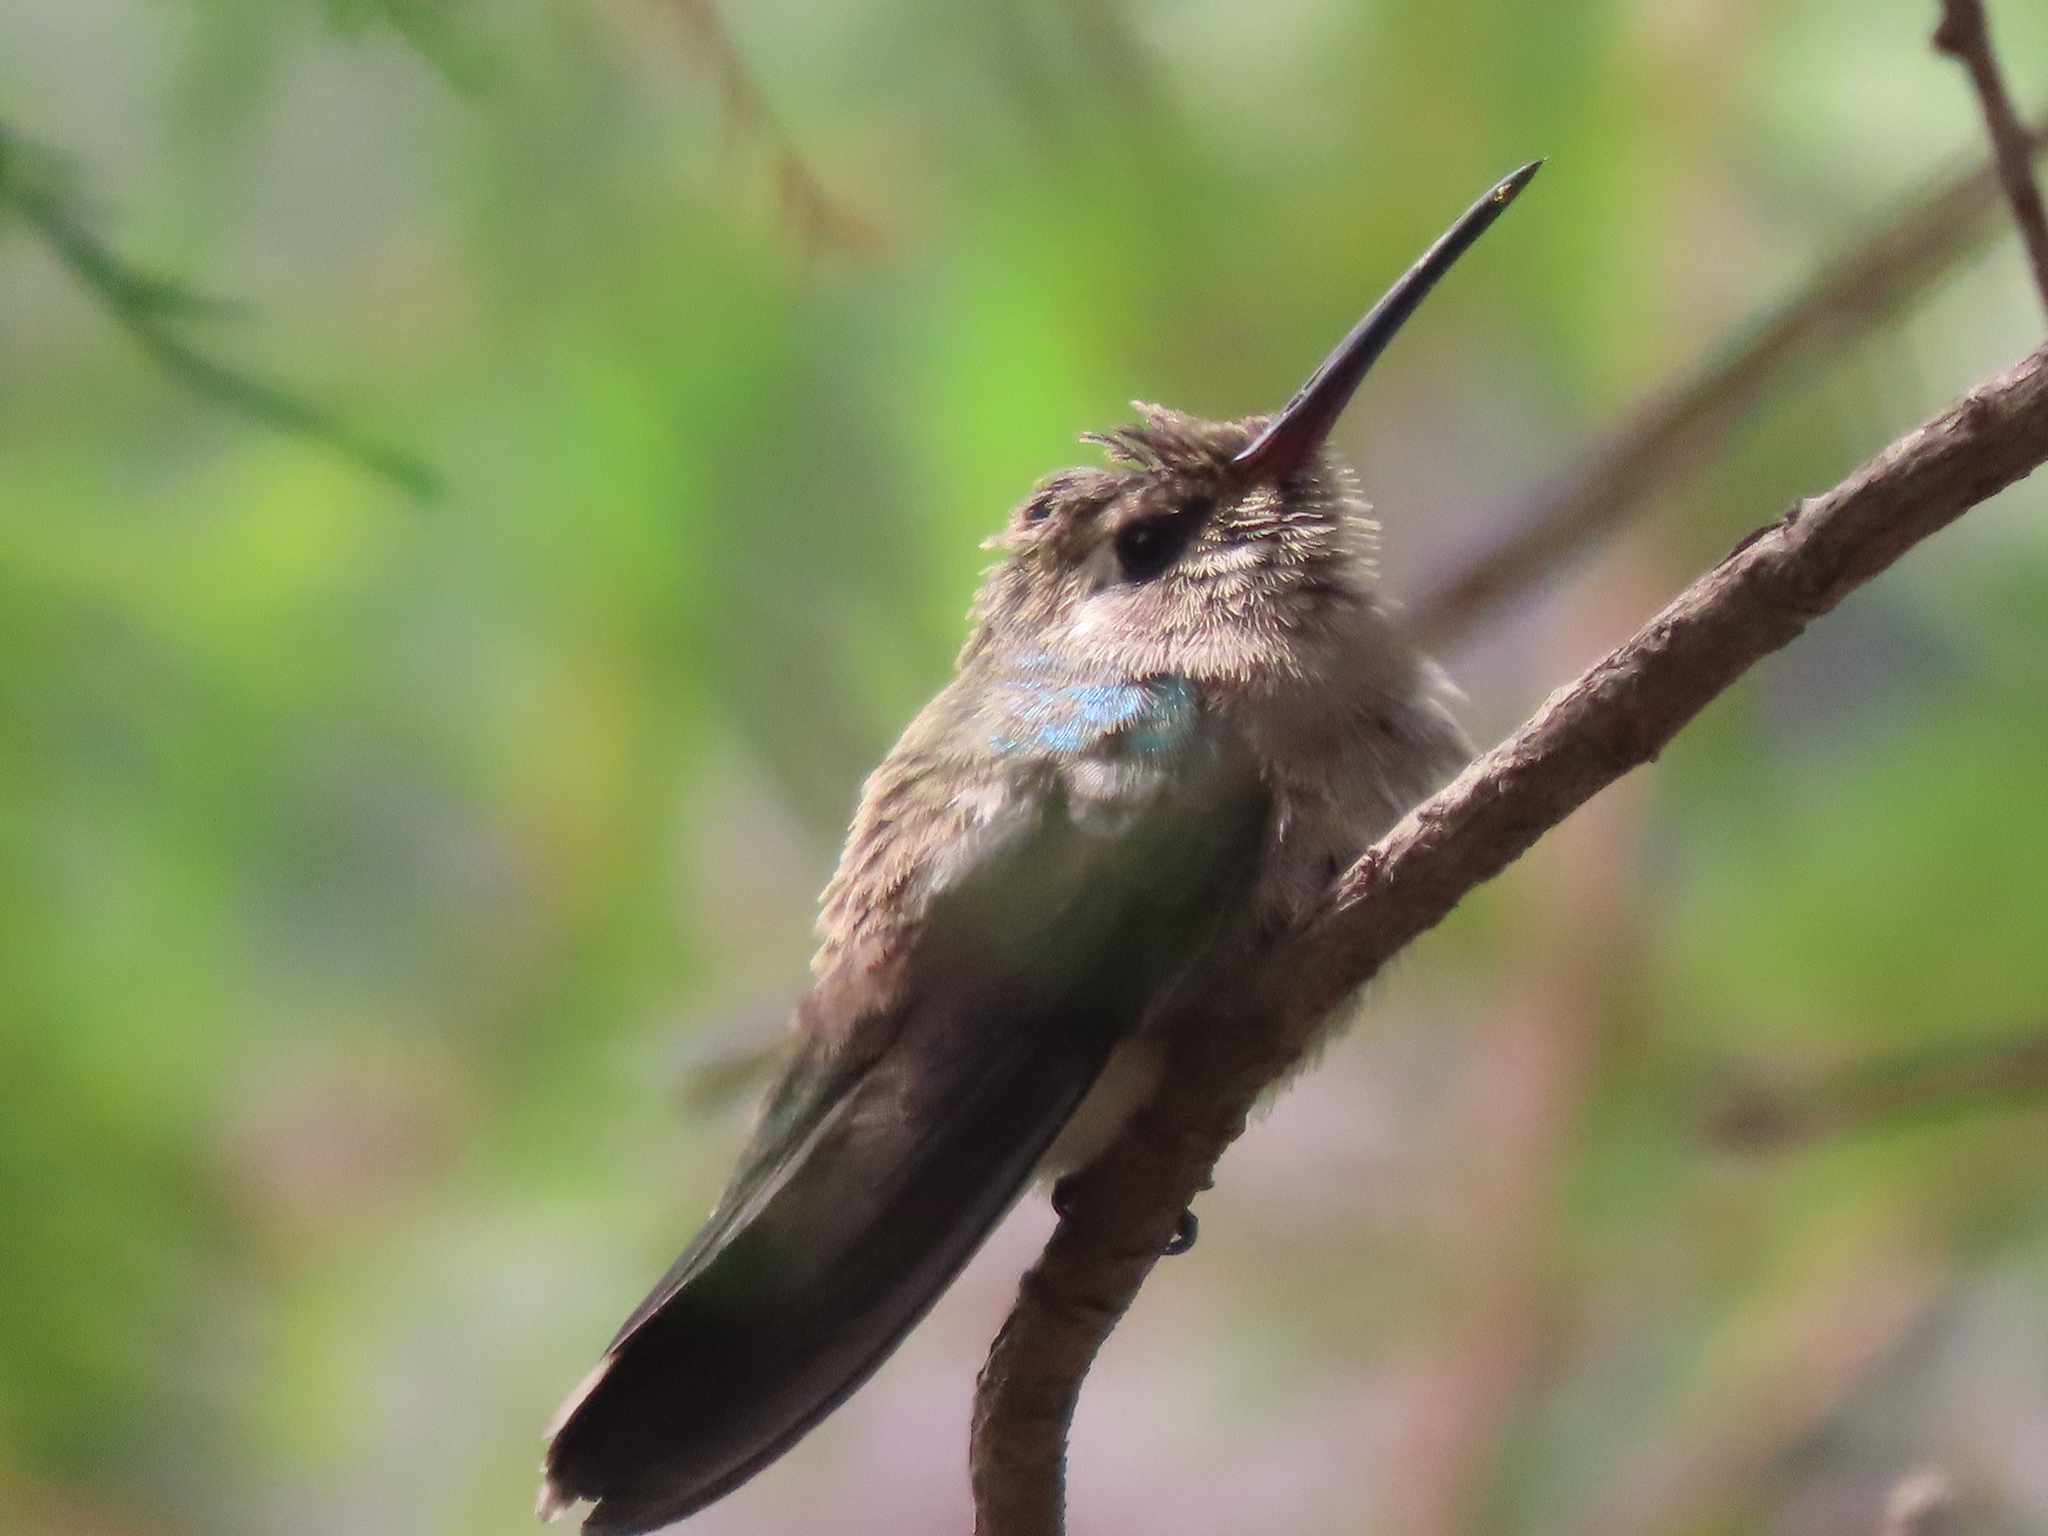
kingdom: Animalia
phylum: Chordata
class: Aves
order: Apodiformes
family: Trochilidae
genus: Cynanthus
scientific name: Cynanthus latirostris
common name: Broad-billed hummingbird
